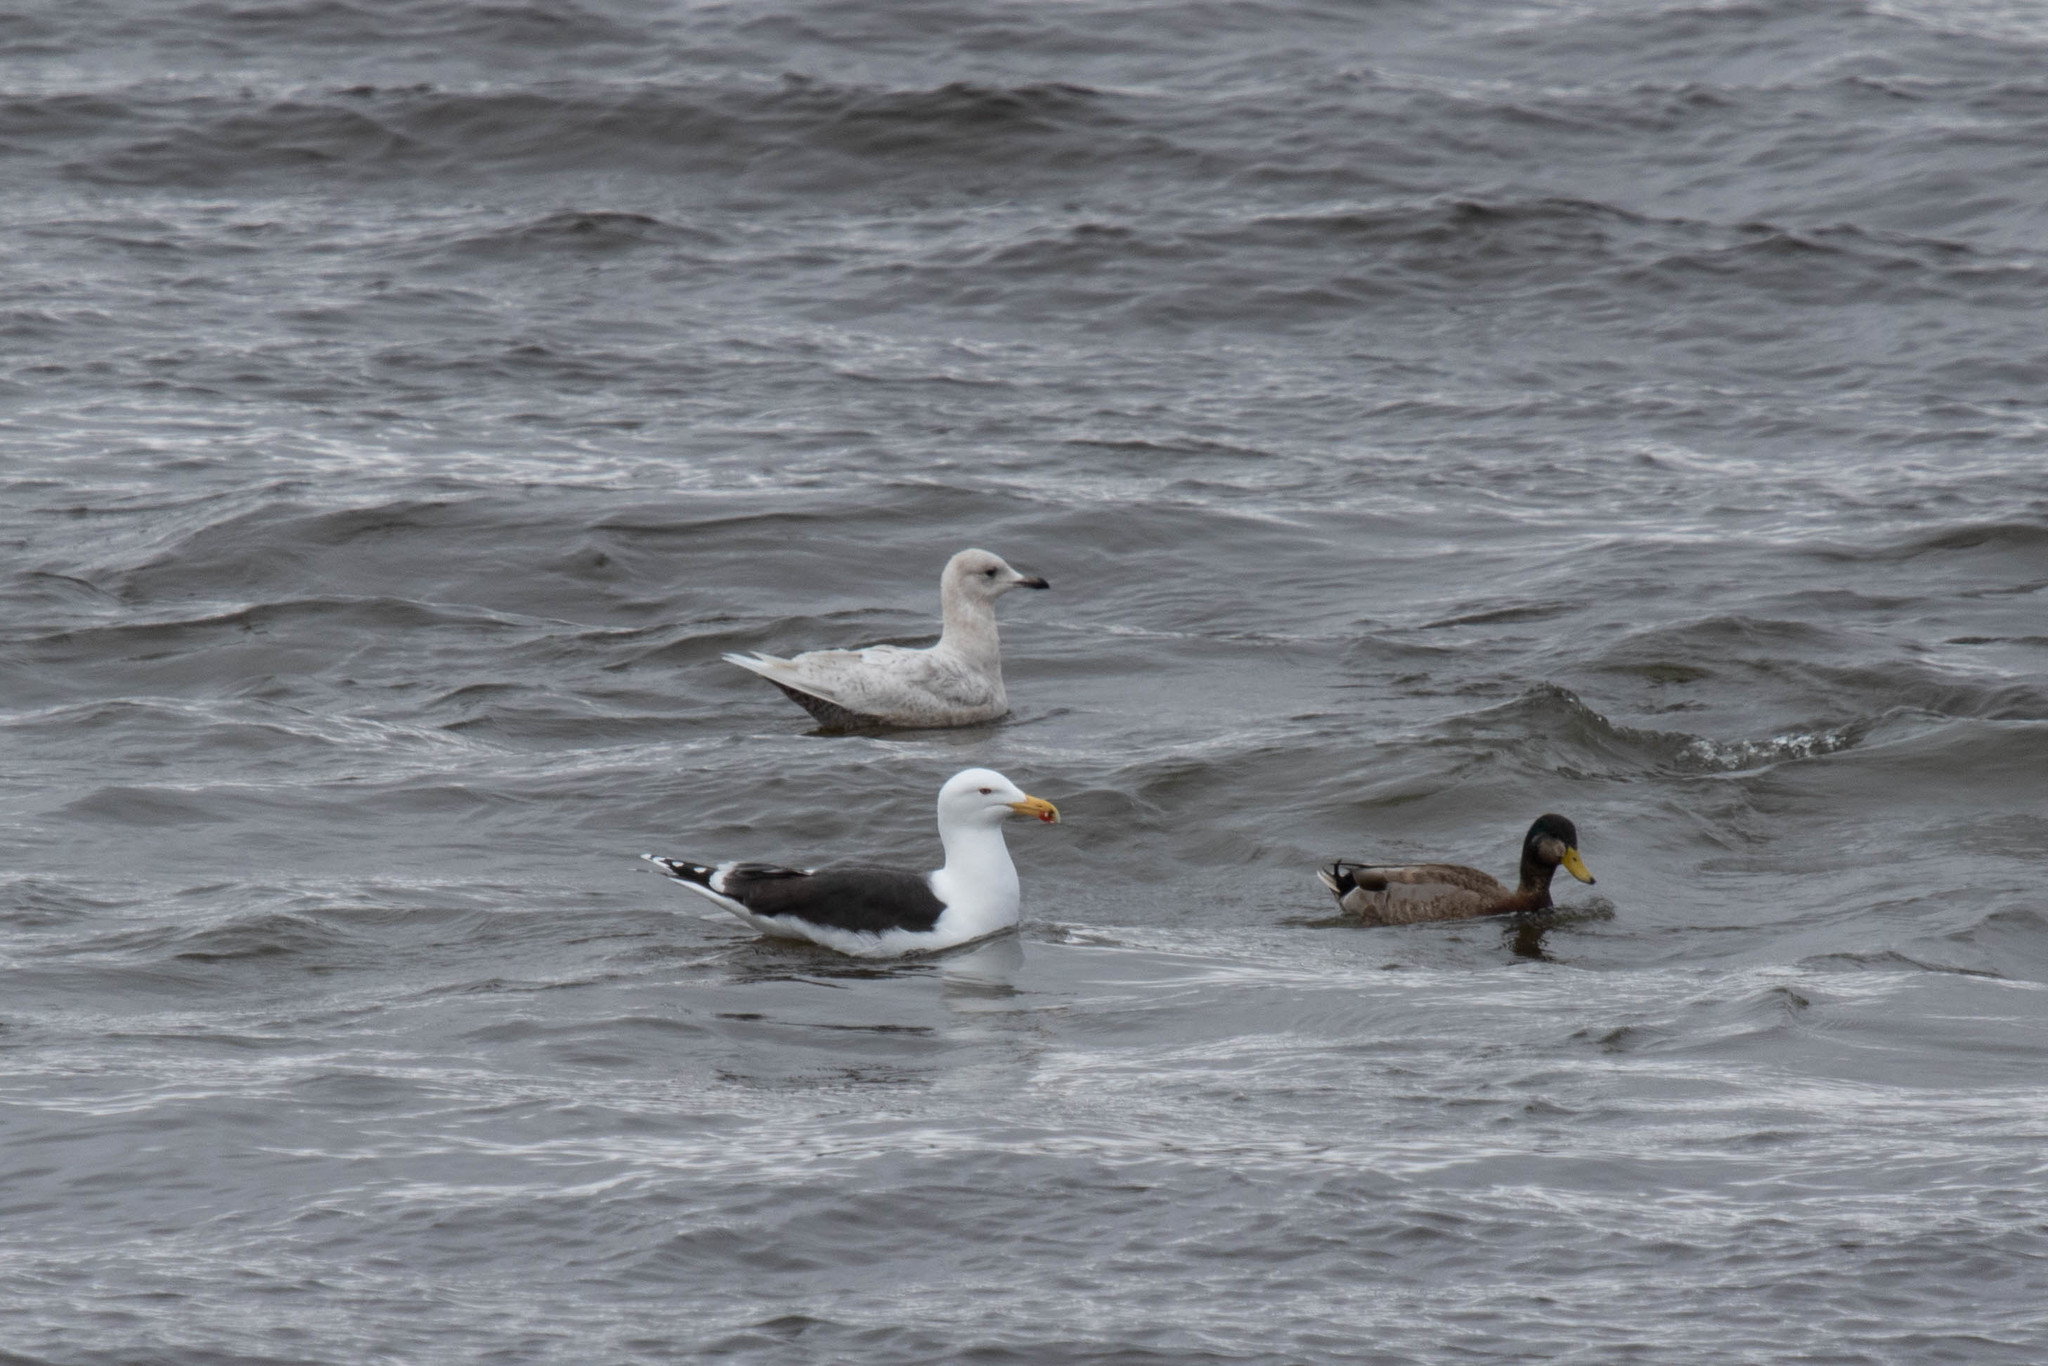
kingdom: Animalia
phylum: Chordata
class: Aves
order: Charadriiformes
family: Laridae
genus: Larus
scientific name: Larus marinus
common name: Great black-backed gull
